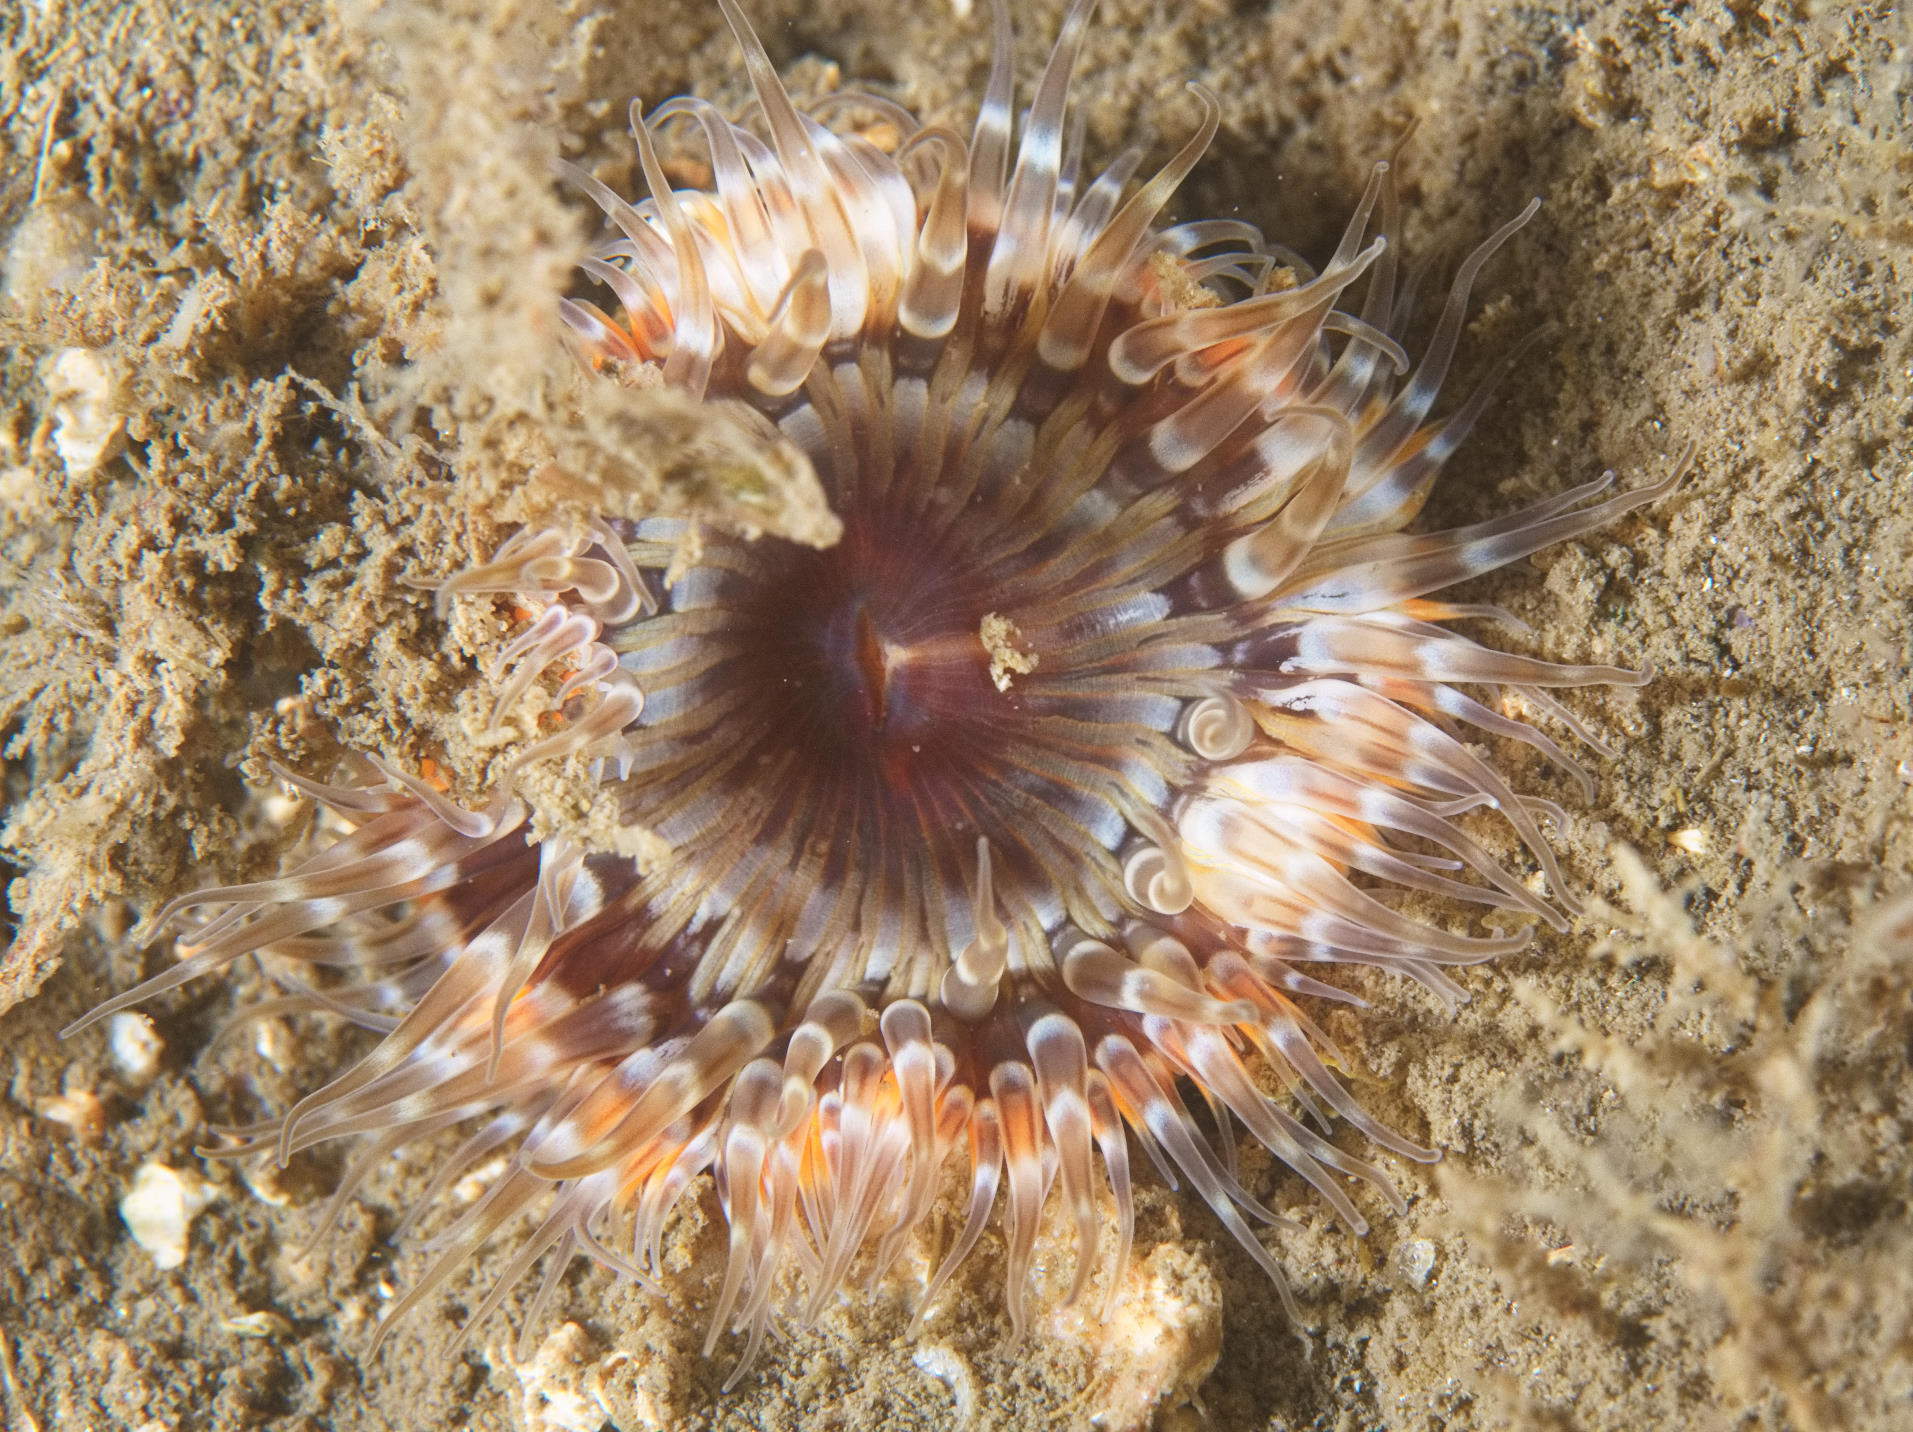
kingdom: Animalia
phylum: Cnidaria
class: Anthozoa
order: Actiniaria
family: Sagartiidae
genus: Cylista
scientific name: Cylista elegans
